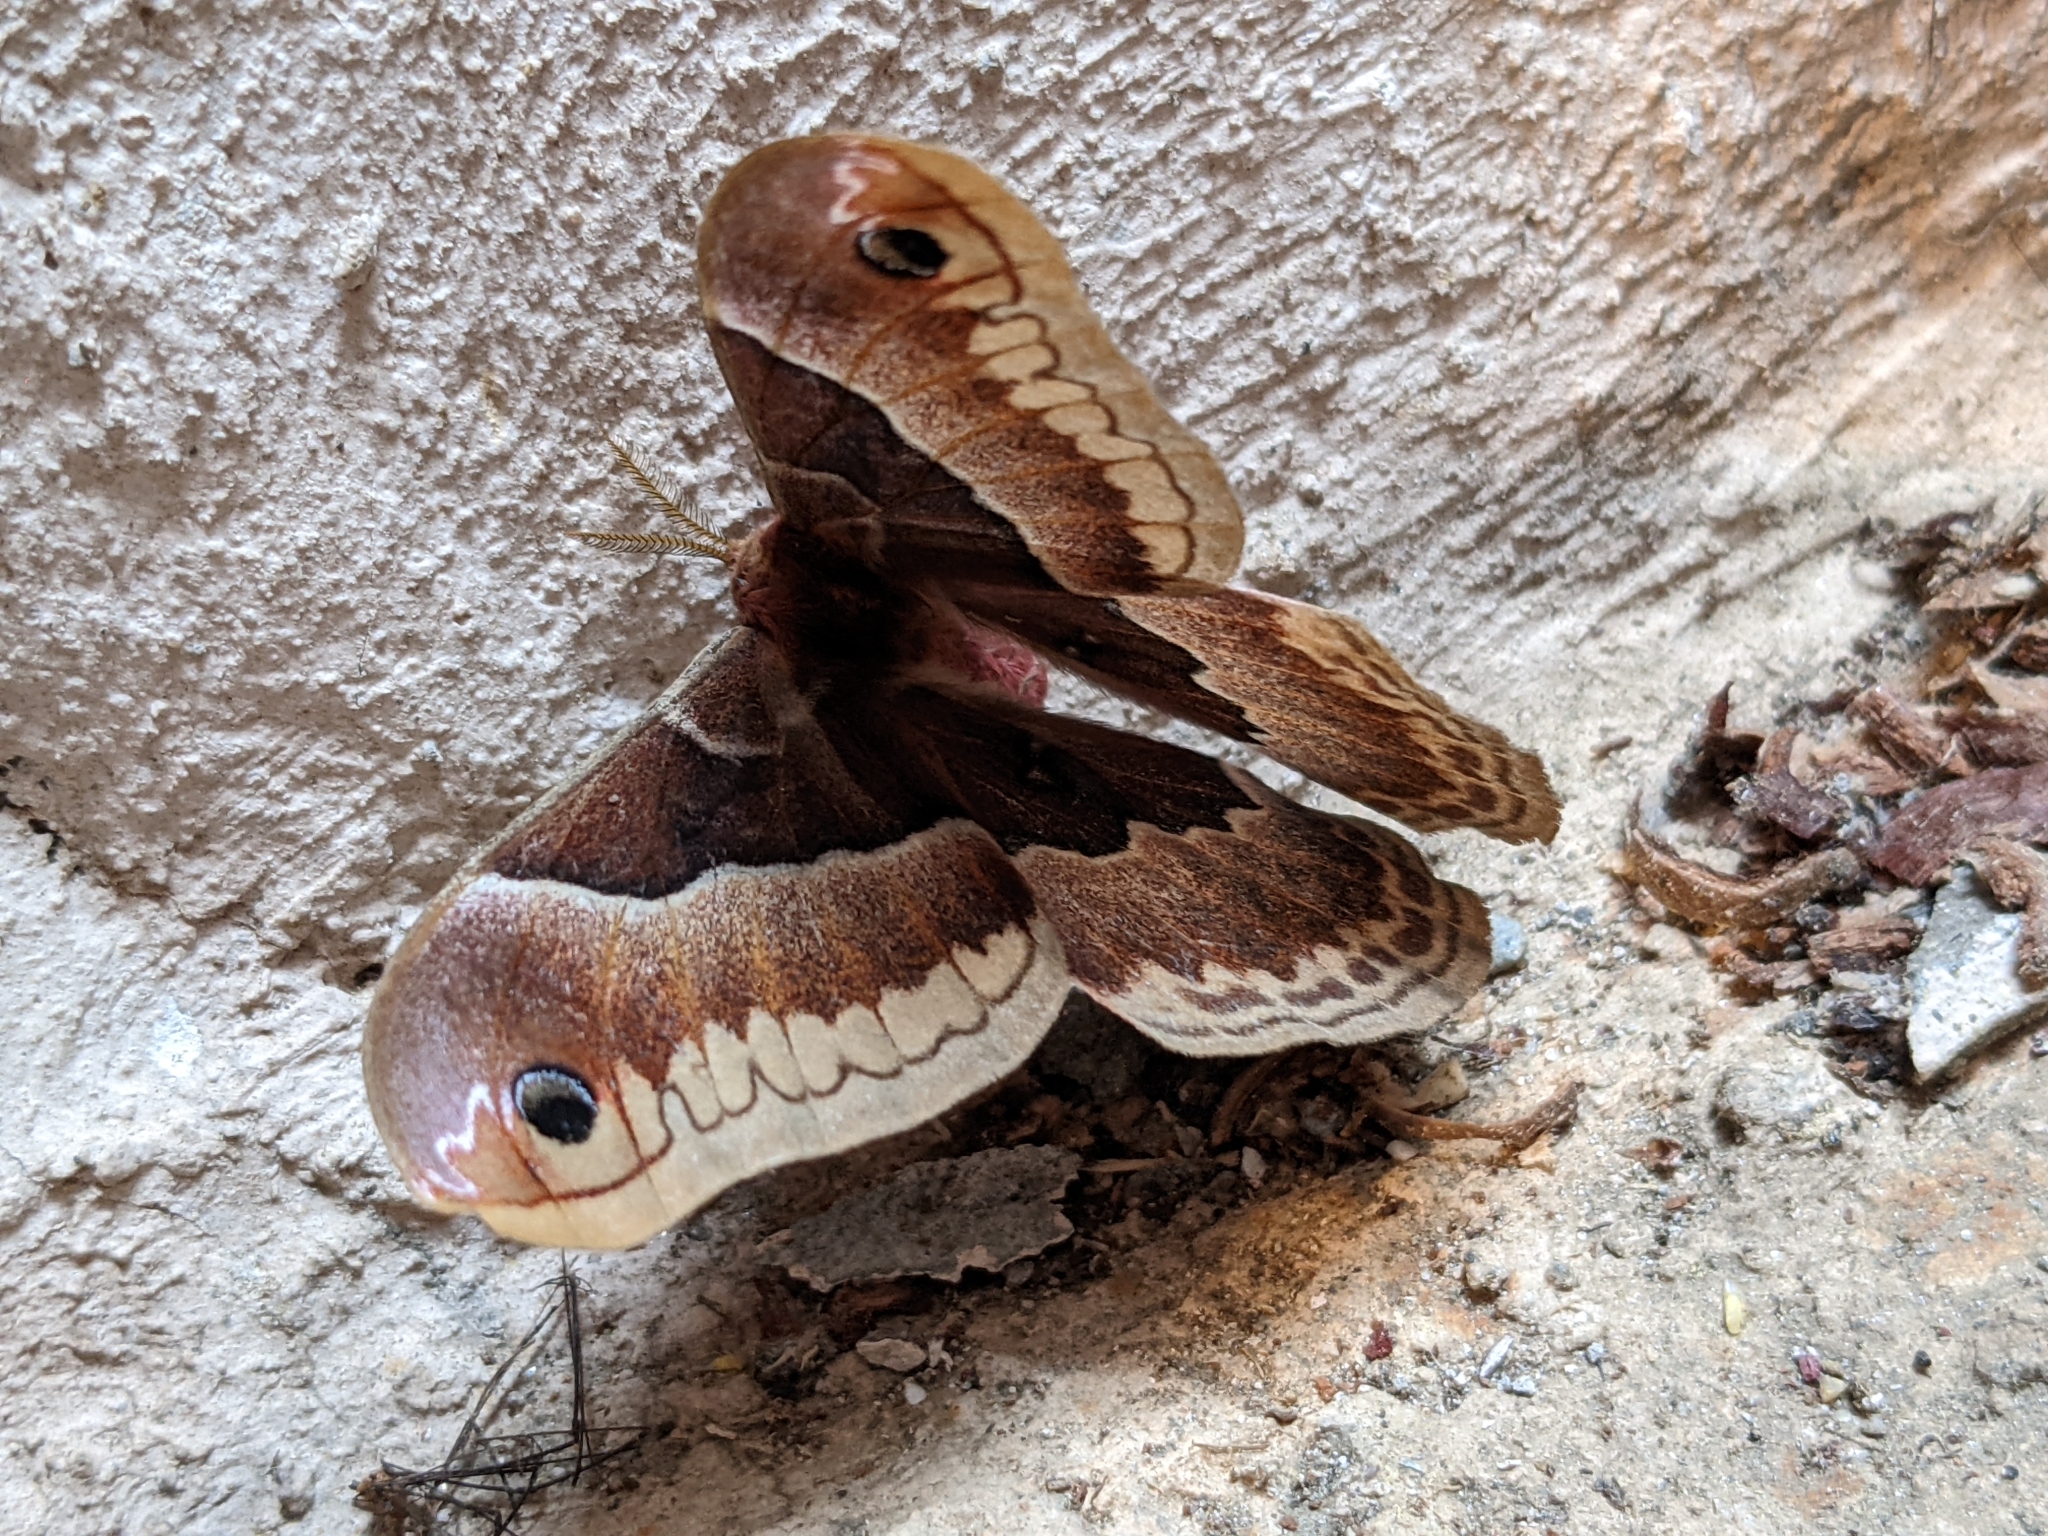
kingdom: Animalia
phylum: Arthropoda
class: Insecta
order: Lepidoptera
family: Saturniidae
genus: Callosamia
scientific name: Callosamia promethea
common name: Promethea silkmoth
